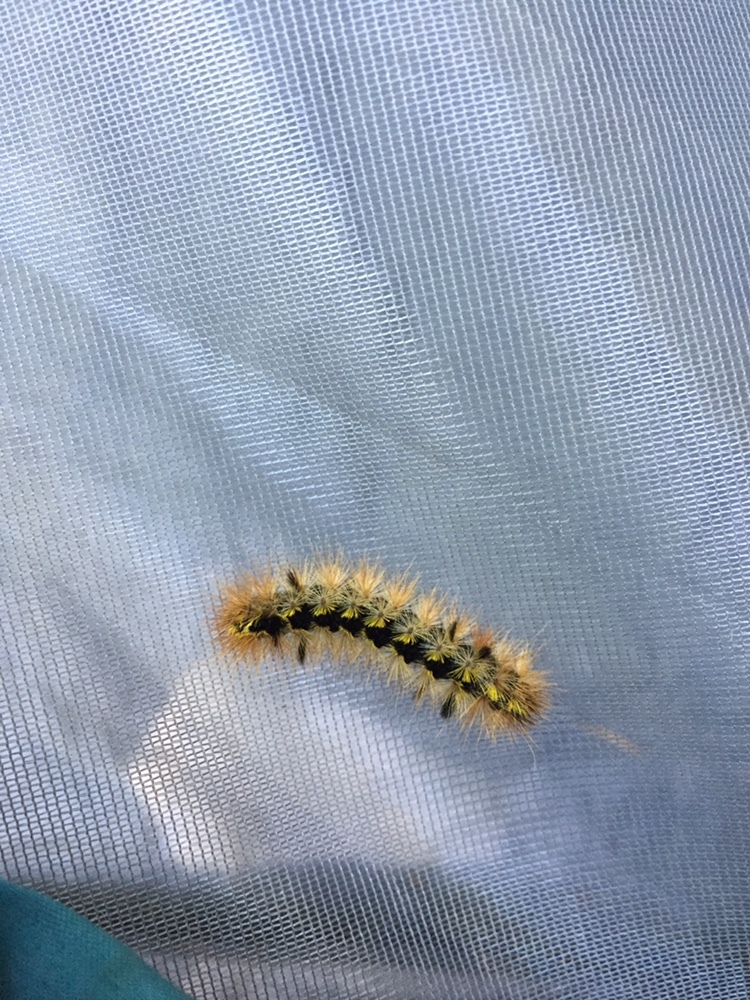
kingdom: Animalia
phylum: Arthropoda
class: Insecta
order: Lepidoptera
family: Erebidae
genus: Lophocampa
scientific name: Lophocampa argentata
